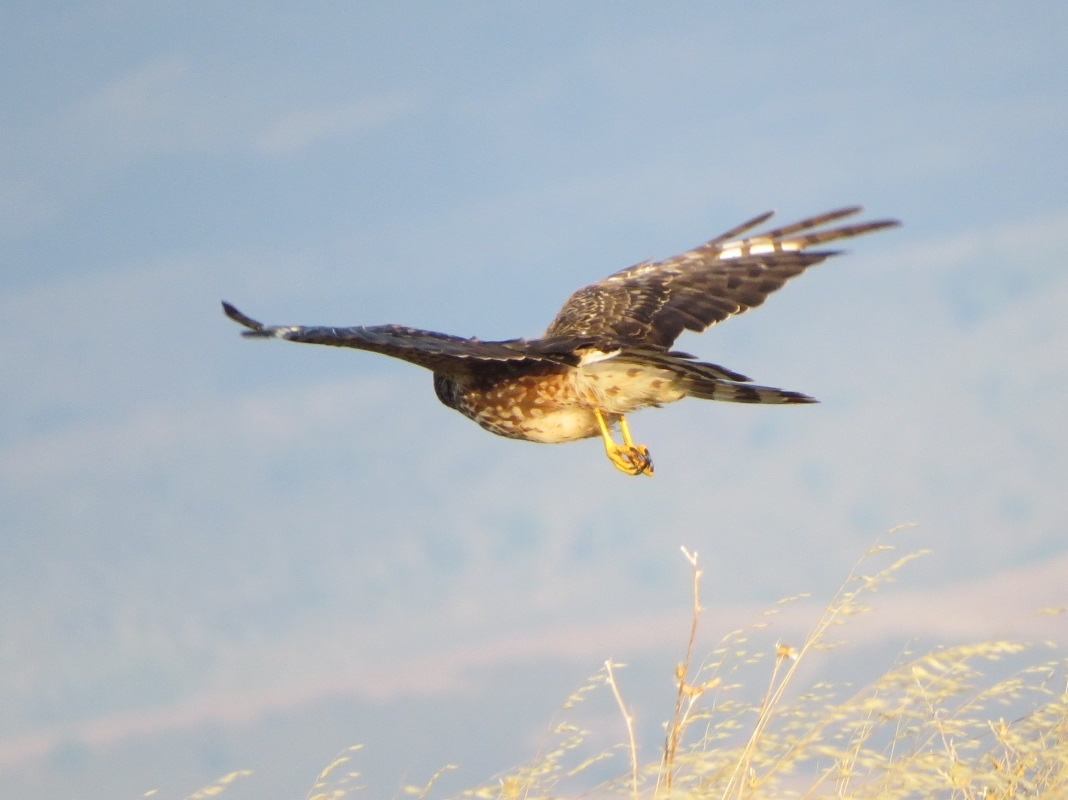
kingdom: Animalia
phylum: Chordata
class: Aves
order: Accipitriformes
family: Accipitridae
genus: Circus
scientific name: Circus cyaneus
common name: Hen harrier
